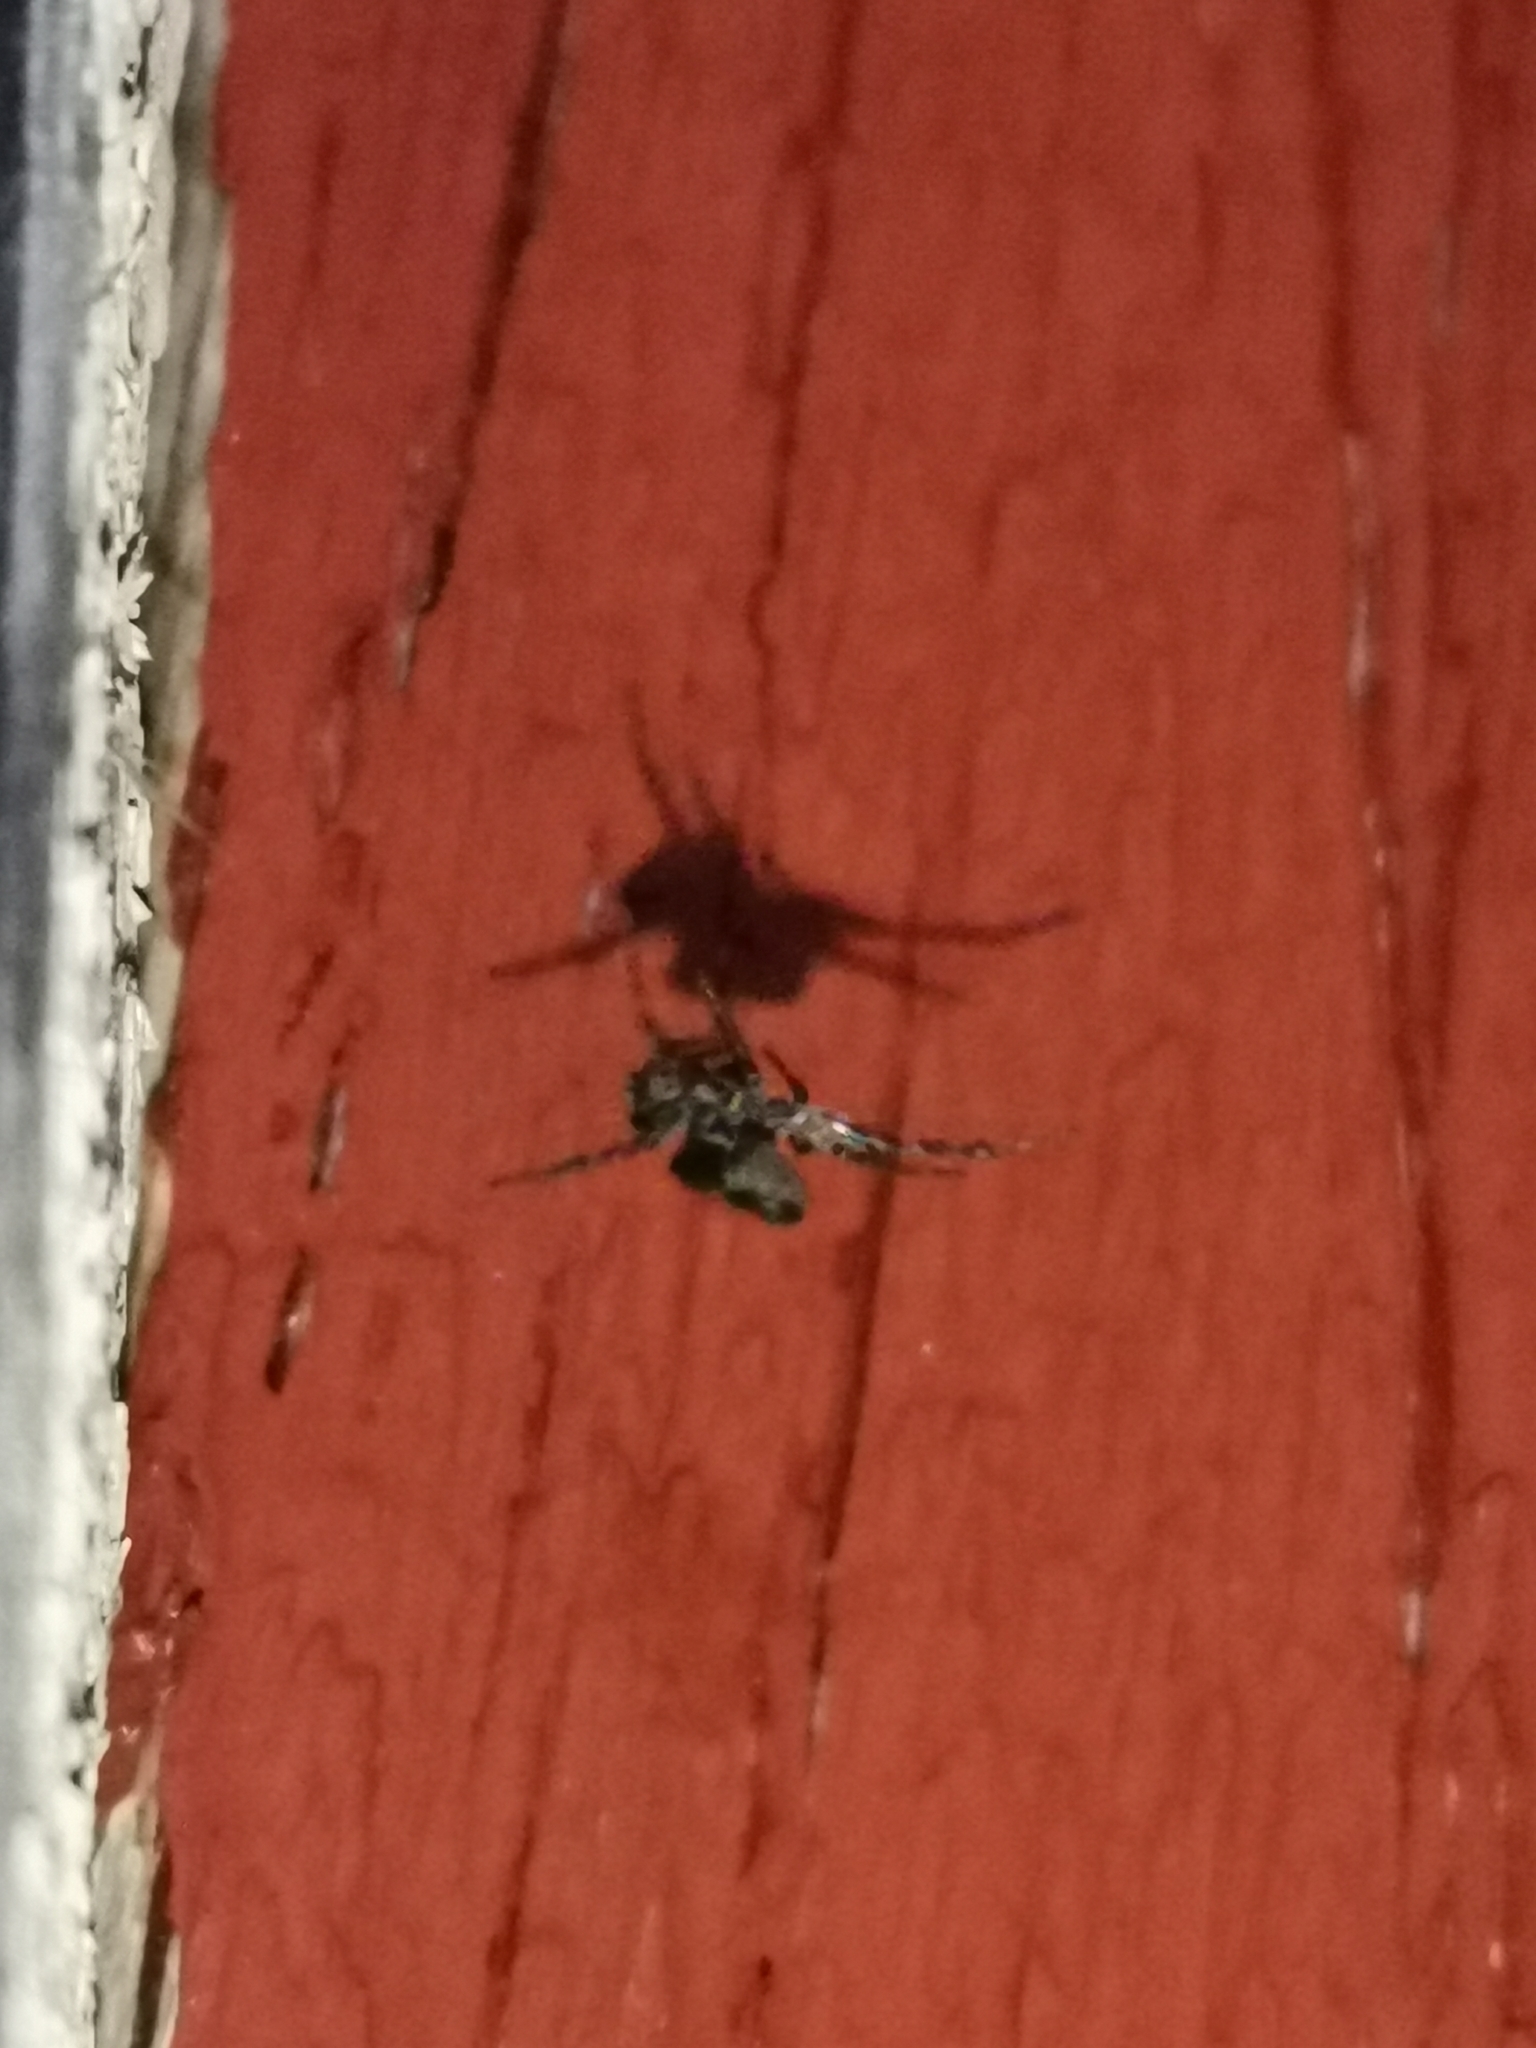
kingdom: Animalia
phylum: Arthropoda
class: Arachnida
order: Araneae
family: Salticidae
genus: Attulus
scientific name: Attulus terebratus
